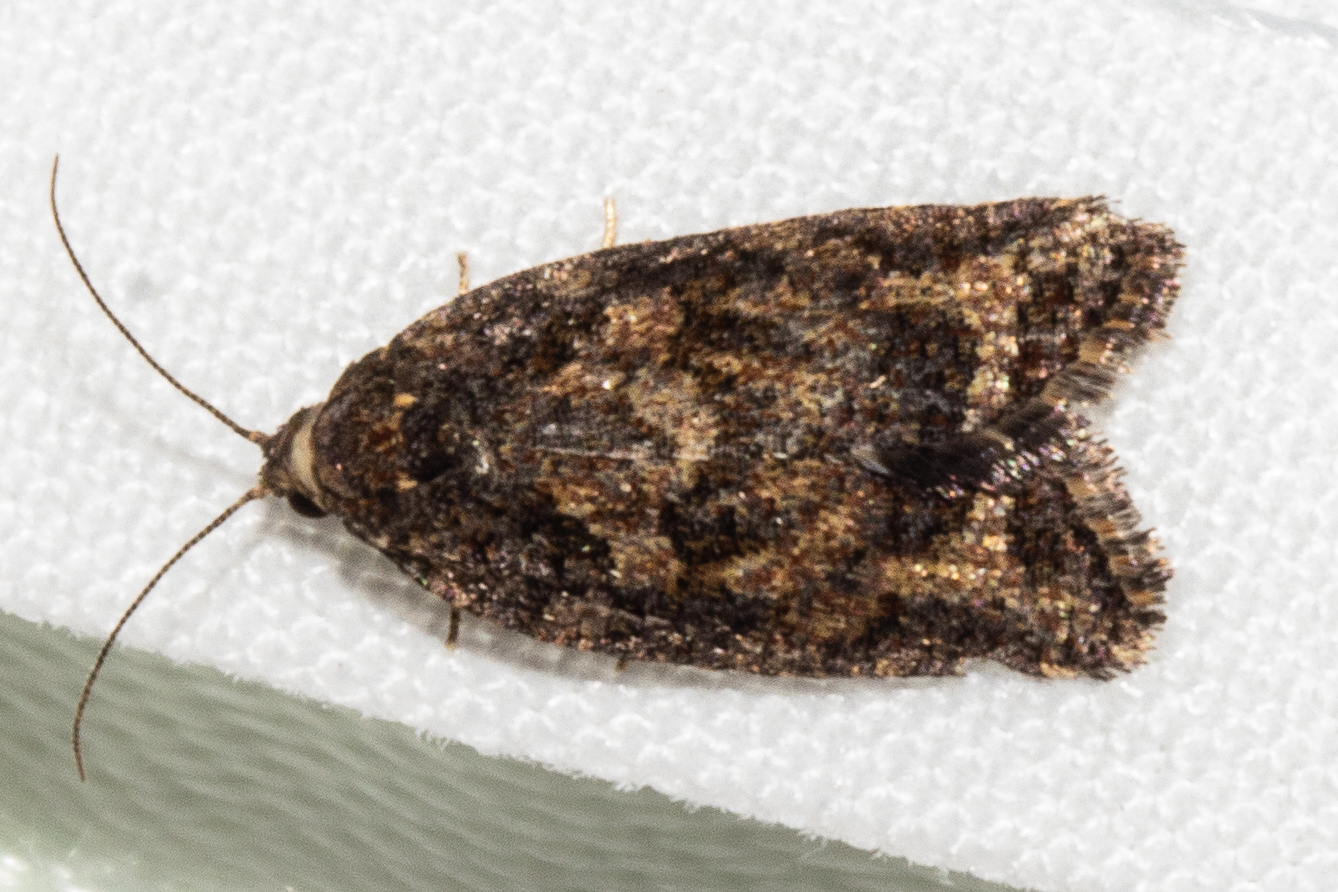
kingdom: Animalia
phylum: Arthropoda
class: Insecta
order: Lepidoptera
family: Tortricidae
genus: Capua
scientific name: Capua intractana
